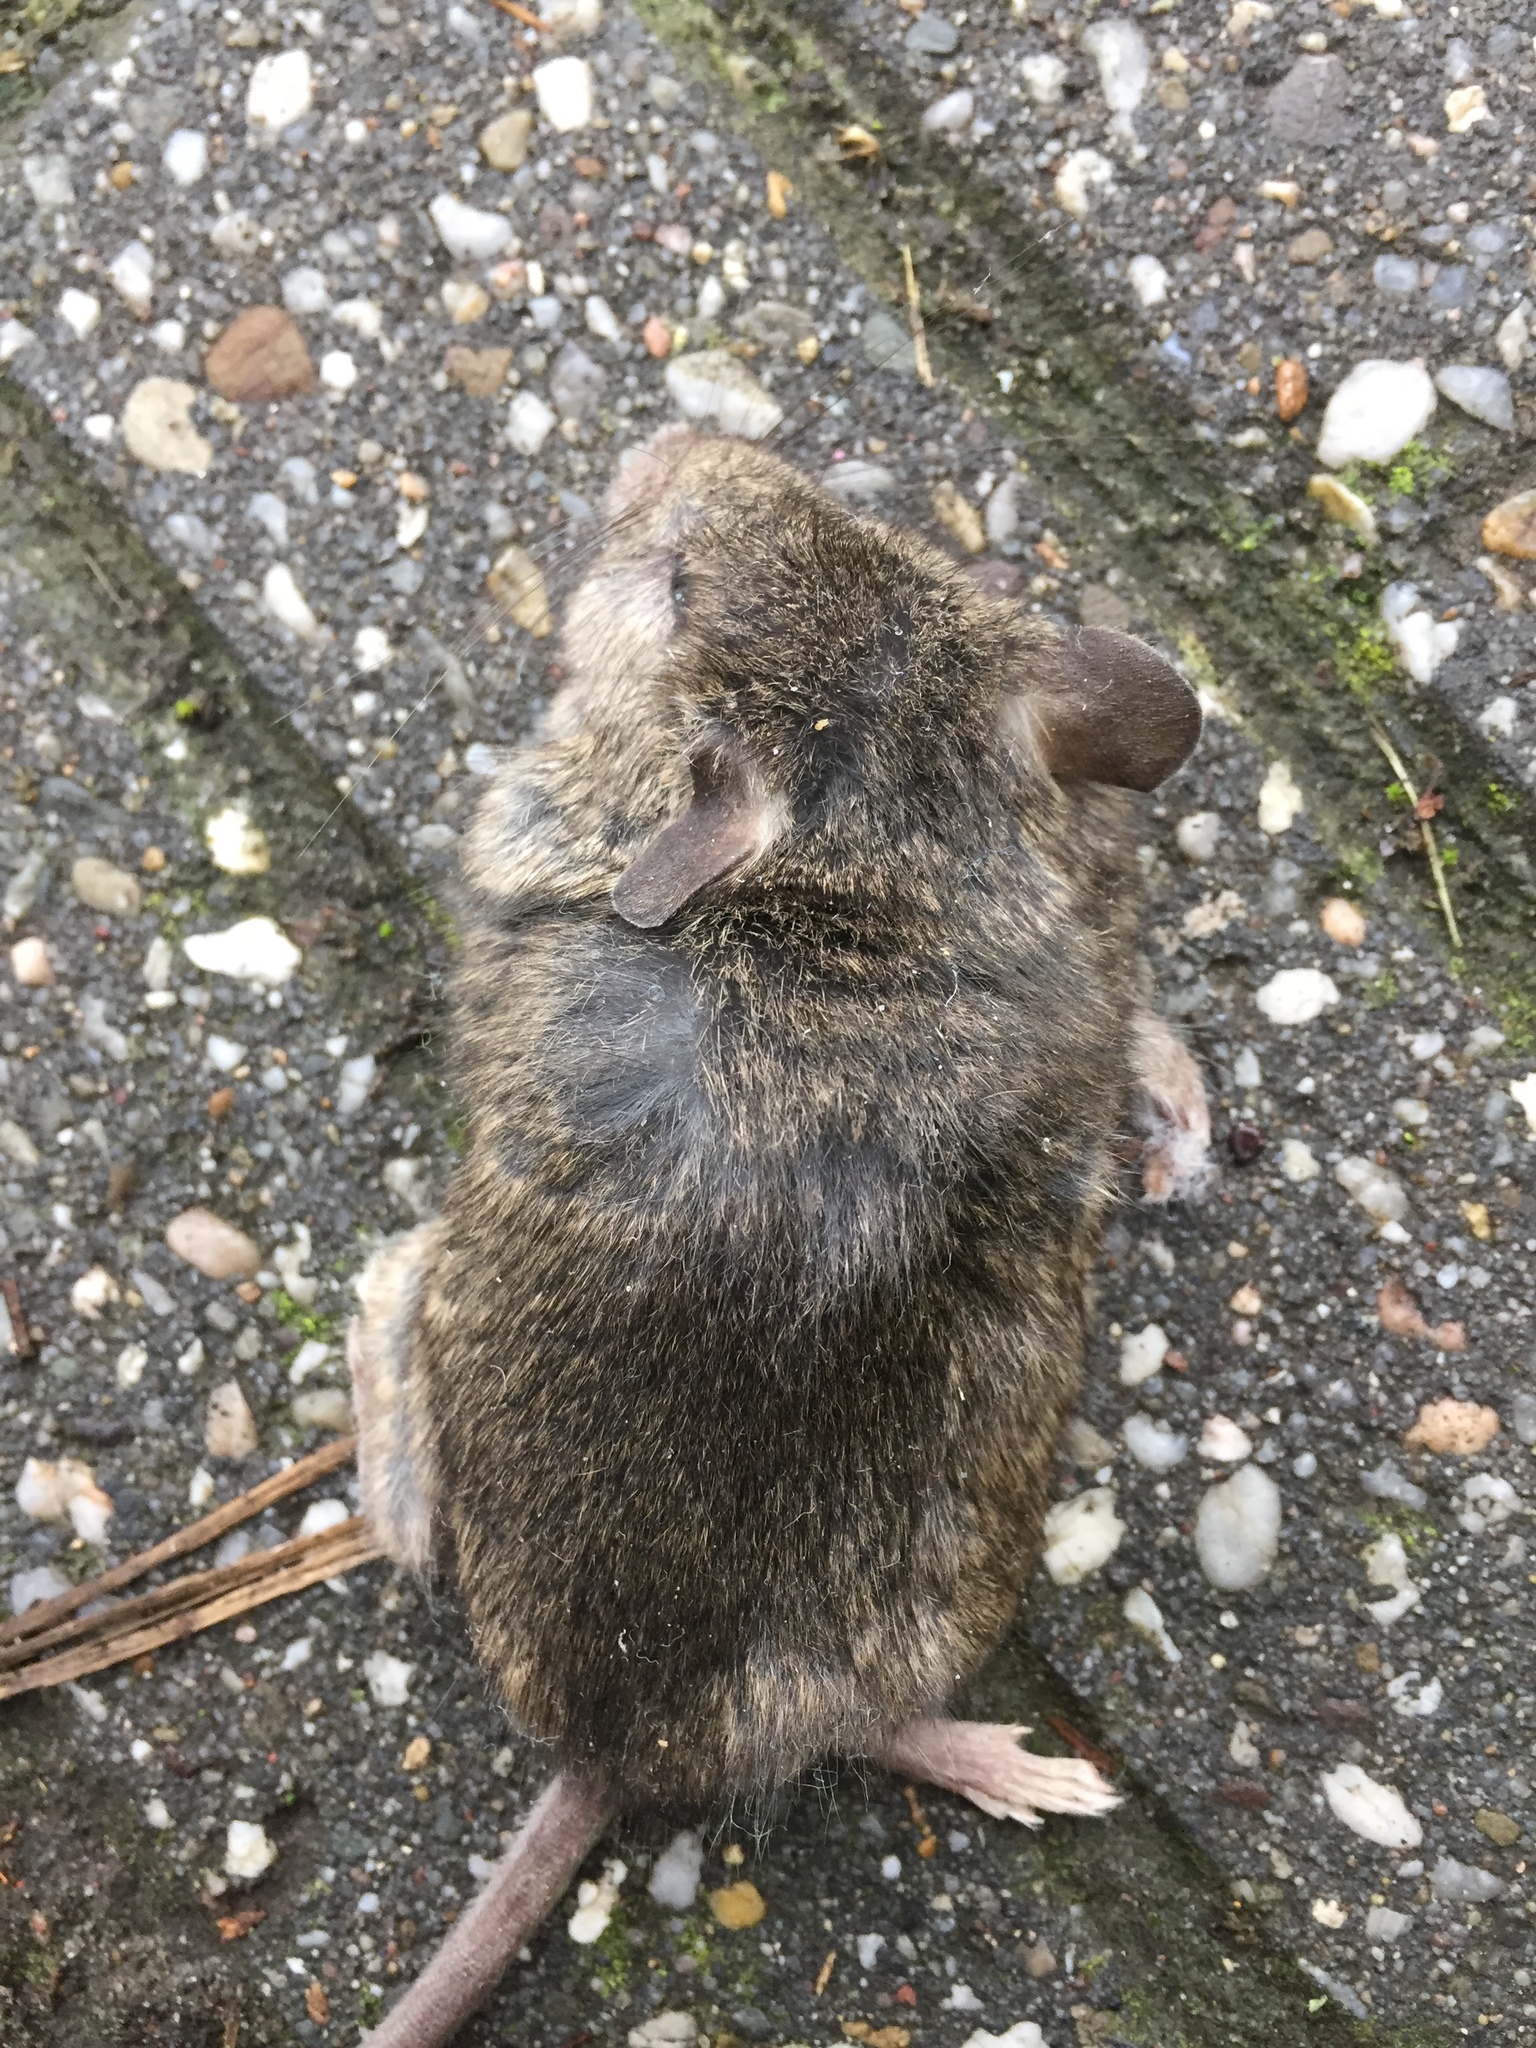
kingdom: Animalia
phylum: Chordata
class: Mammalia
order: Rodentia
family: Muridae
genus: Mus
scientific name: Mus musculus
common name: House mouse
